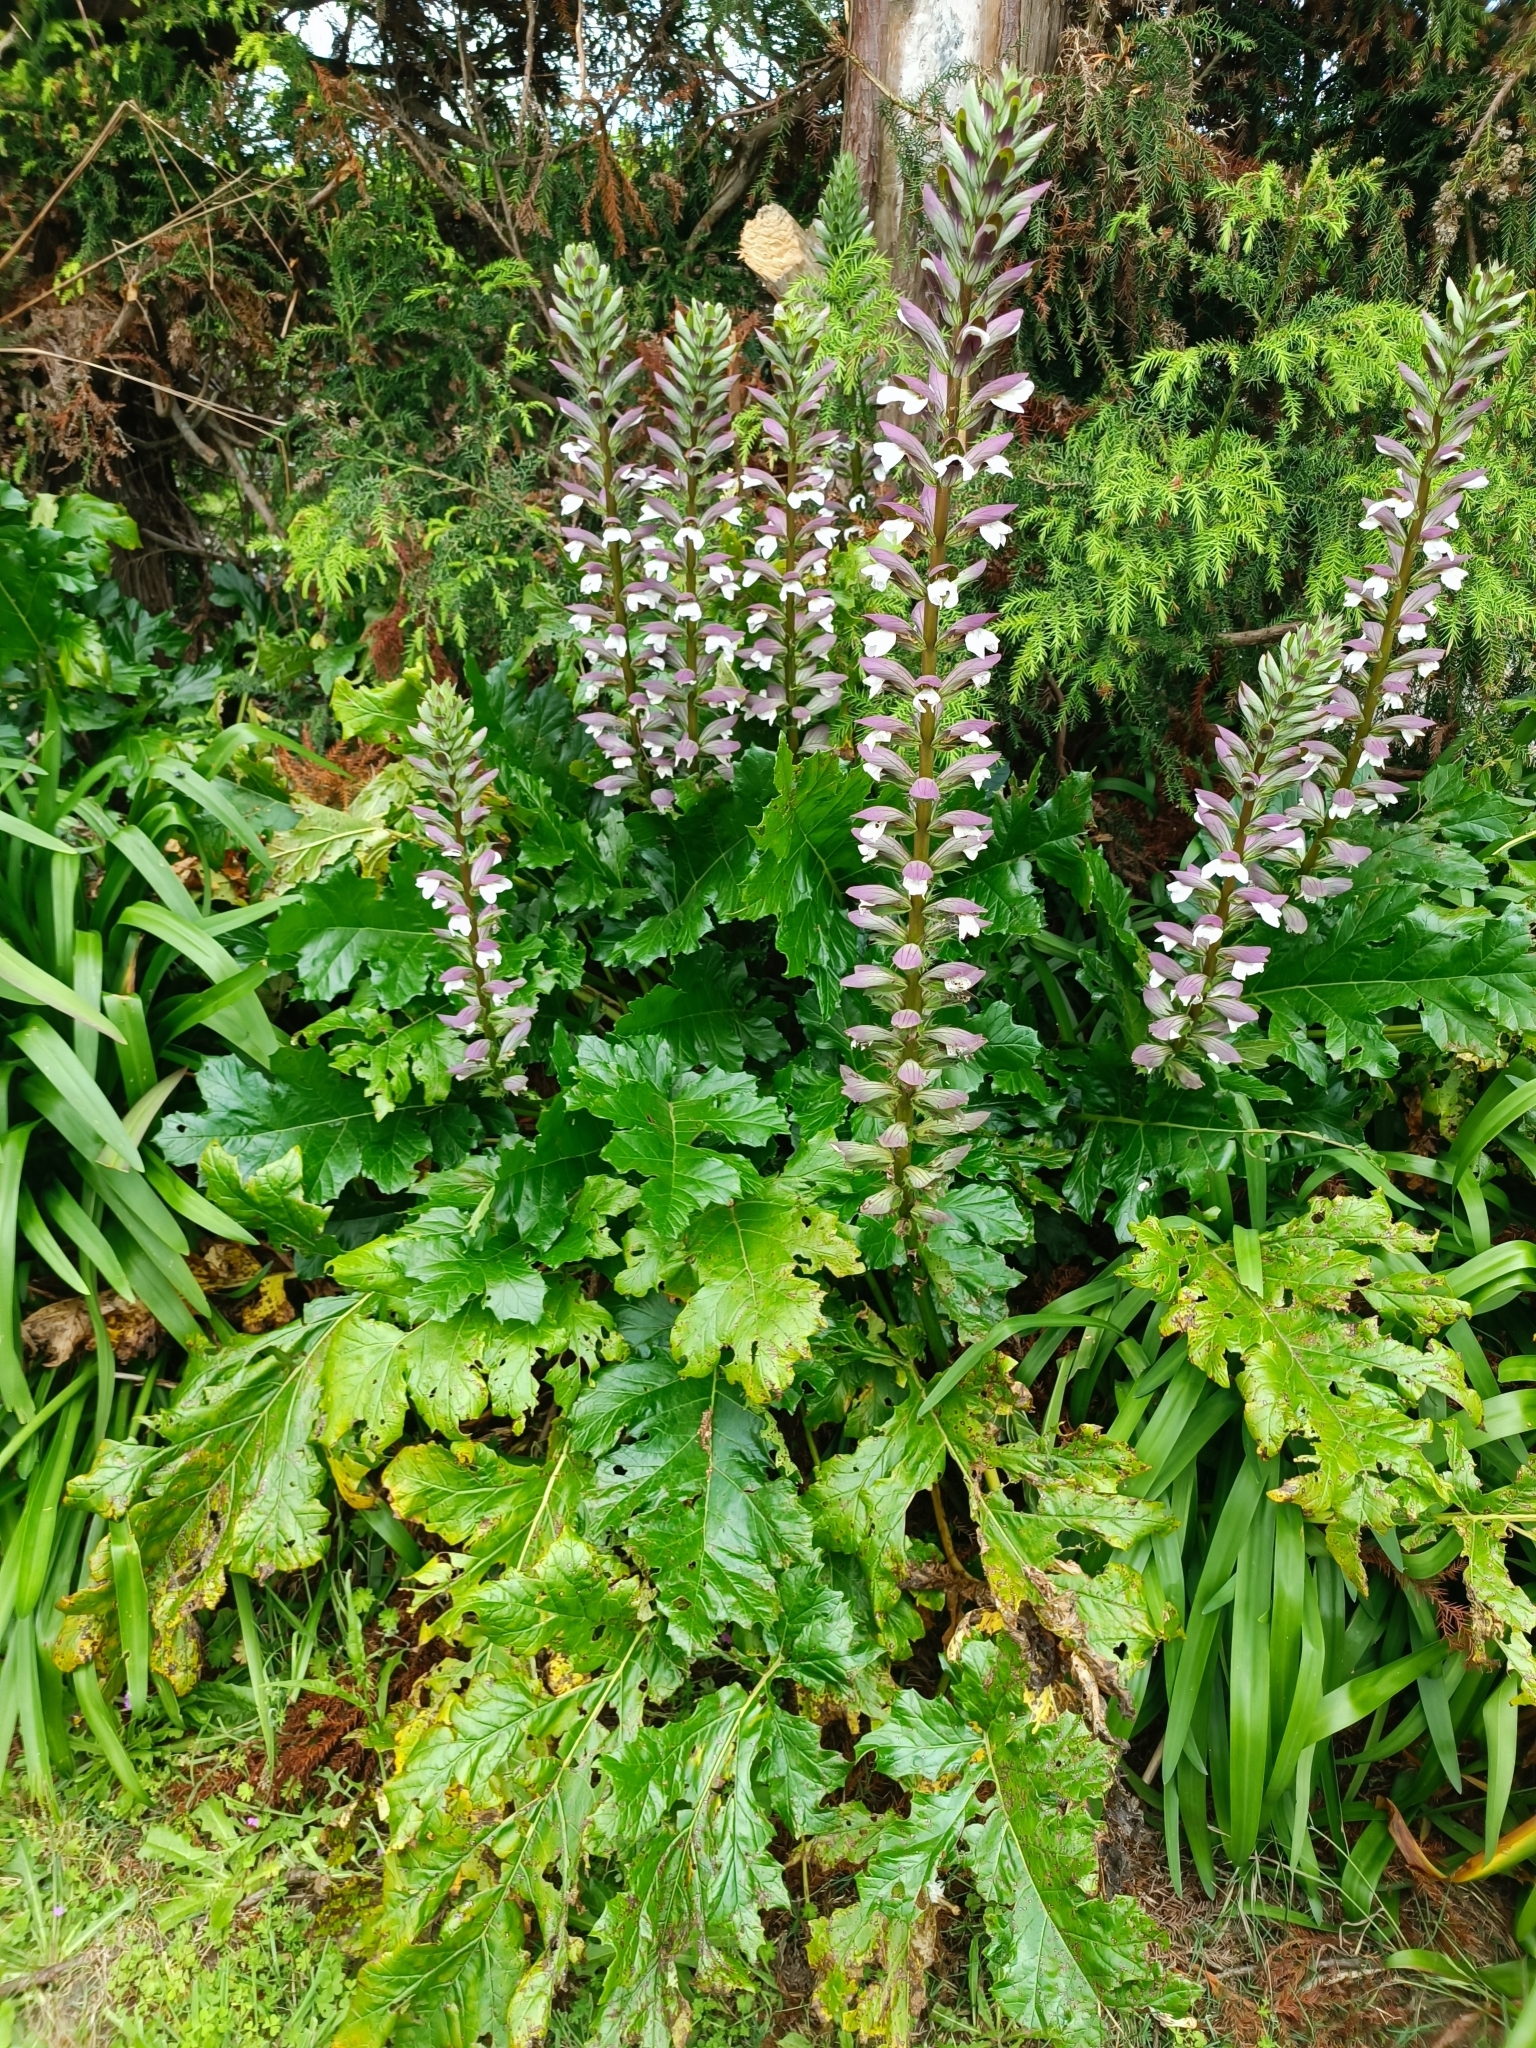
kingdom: Plantae
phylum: Tracheophyta
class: Magnoliopsida
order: Lamiales
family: Acanthaceae
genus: Acanthus
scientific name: Acanthus mollis
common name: Bear's-breech
